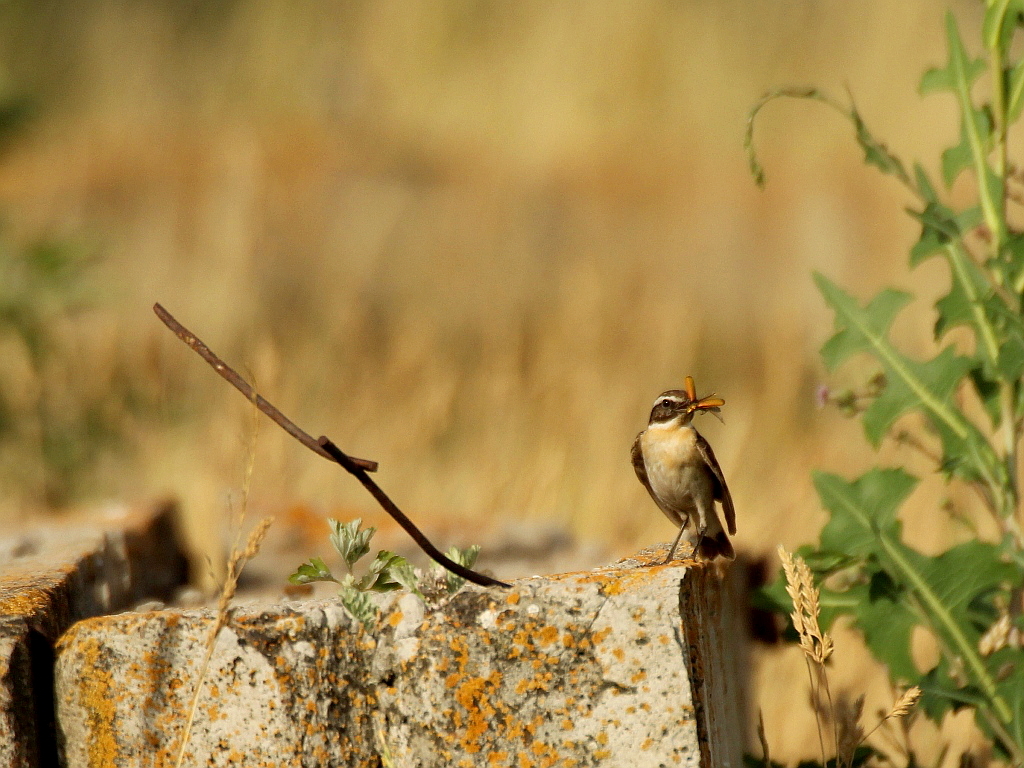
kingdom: Animalia
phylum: Chordata
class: Aves
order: Passeriformes
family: Muscicapidae
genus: Saxicola
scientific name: Saxicola rubetra
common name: Whinchat
